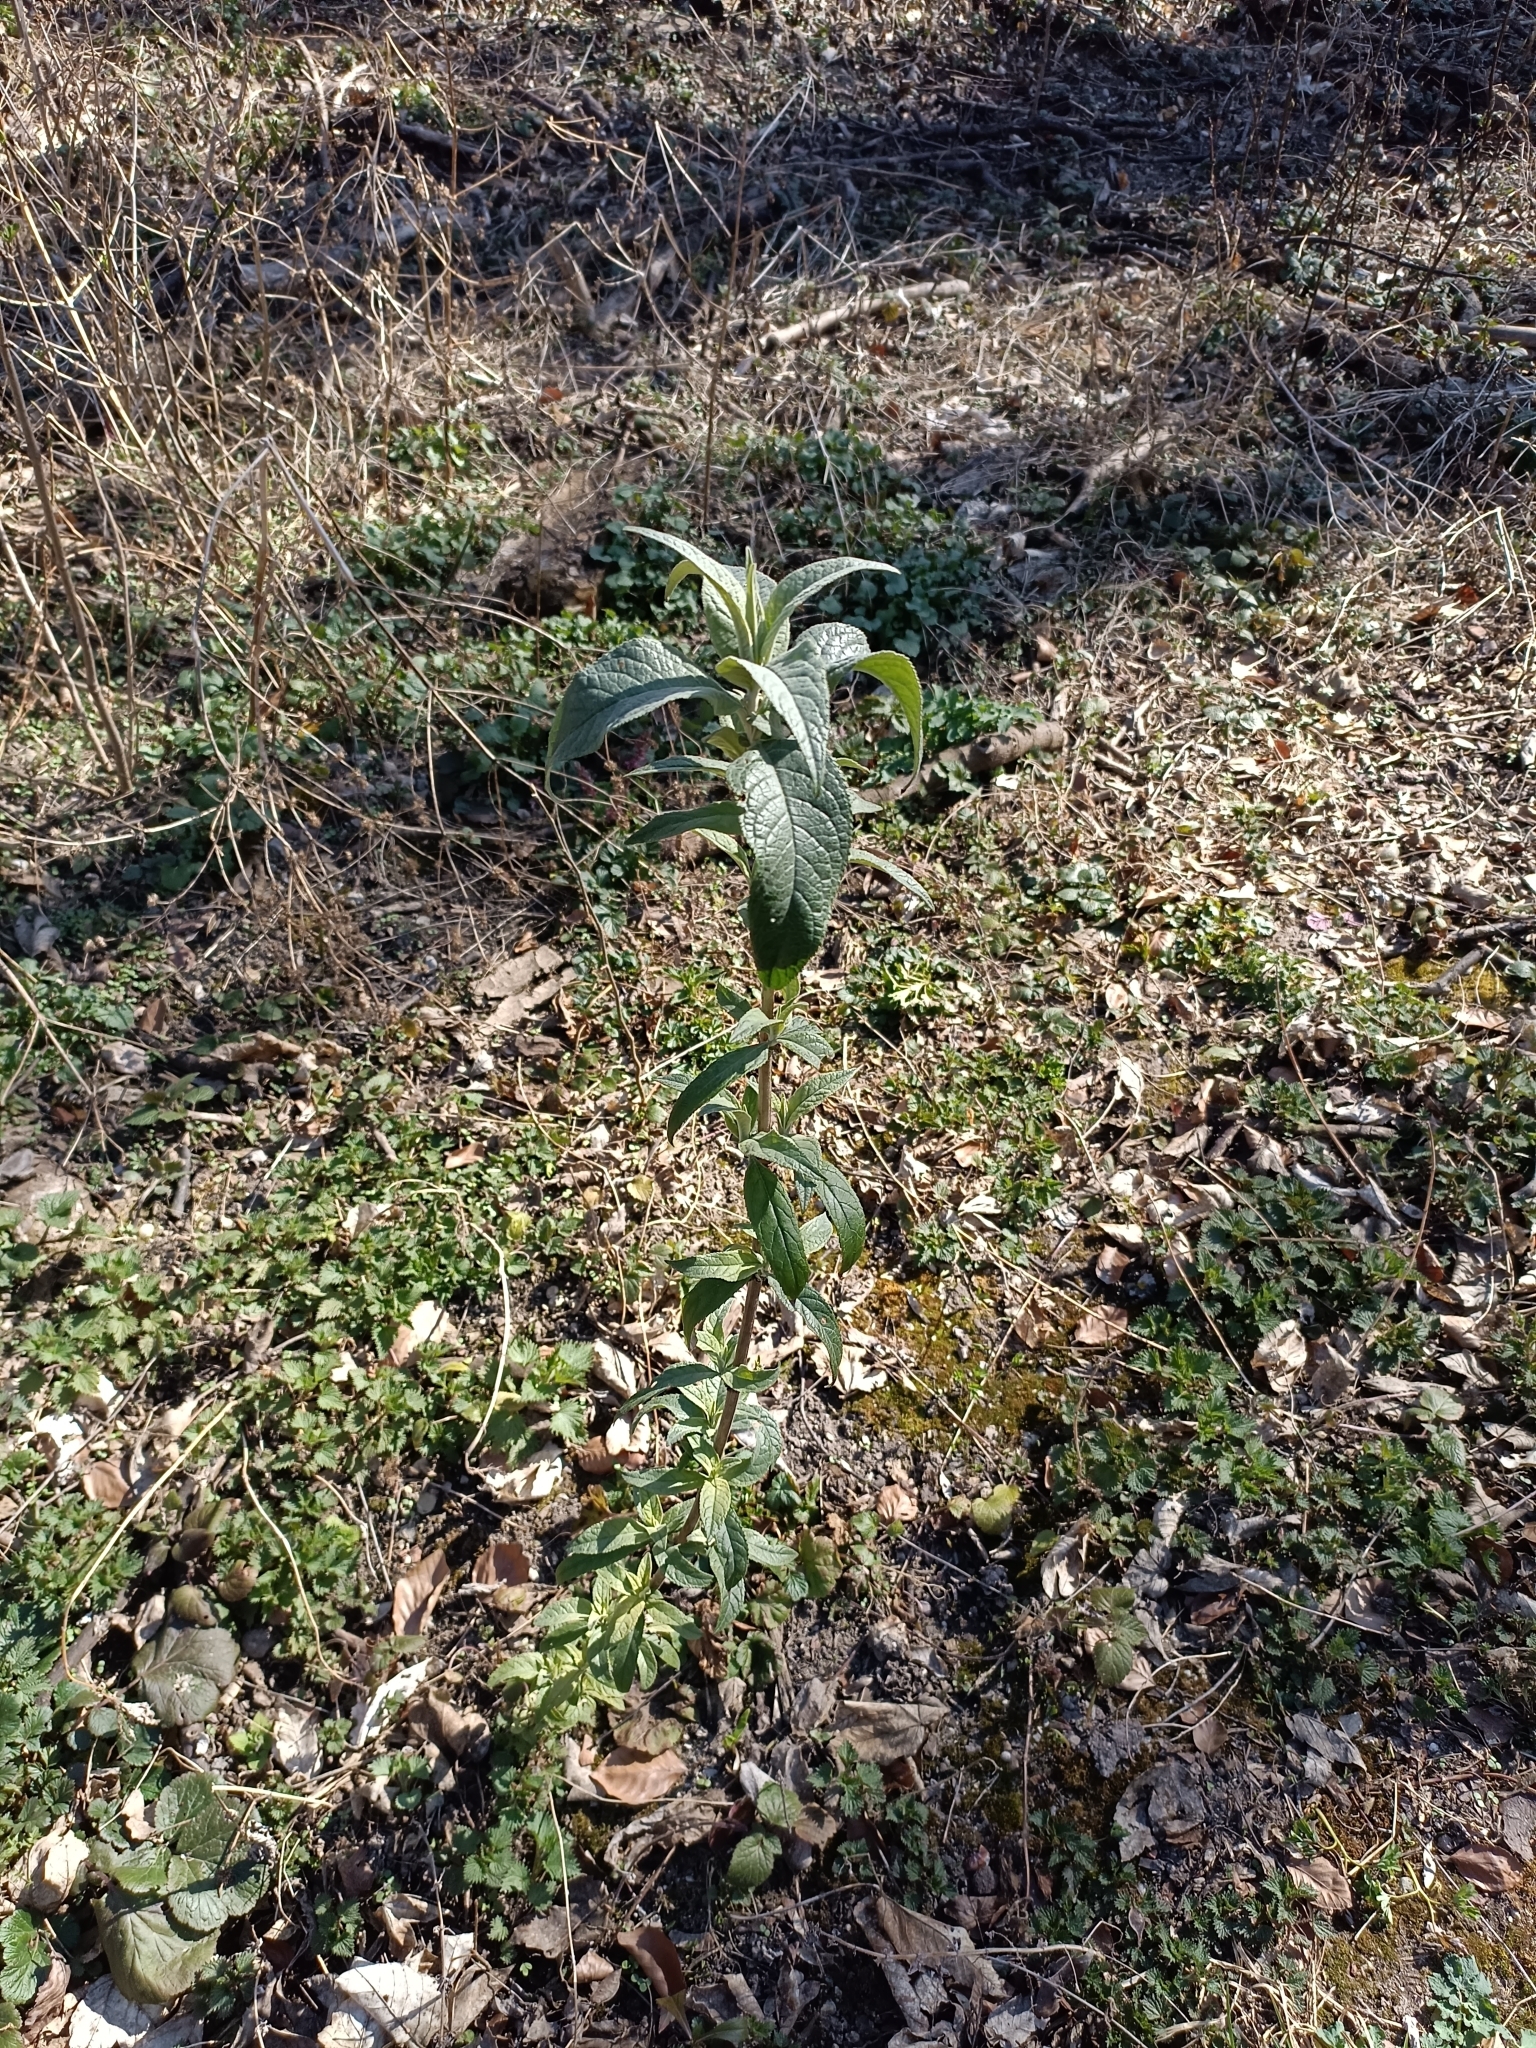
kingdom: Plantae
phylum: Tracheophyta
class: Magnoliopsida
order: Lamiales
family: Scrophulariaceae
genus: Buddleja
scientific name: Buddleja davidii
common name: Butterfly-bush
